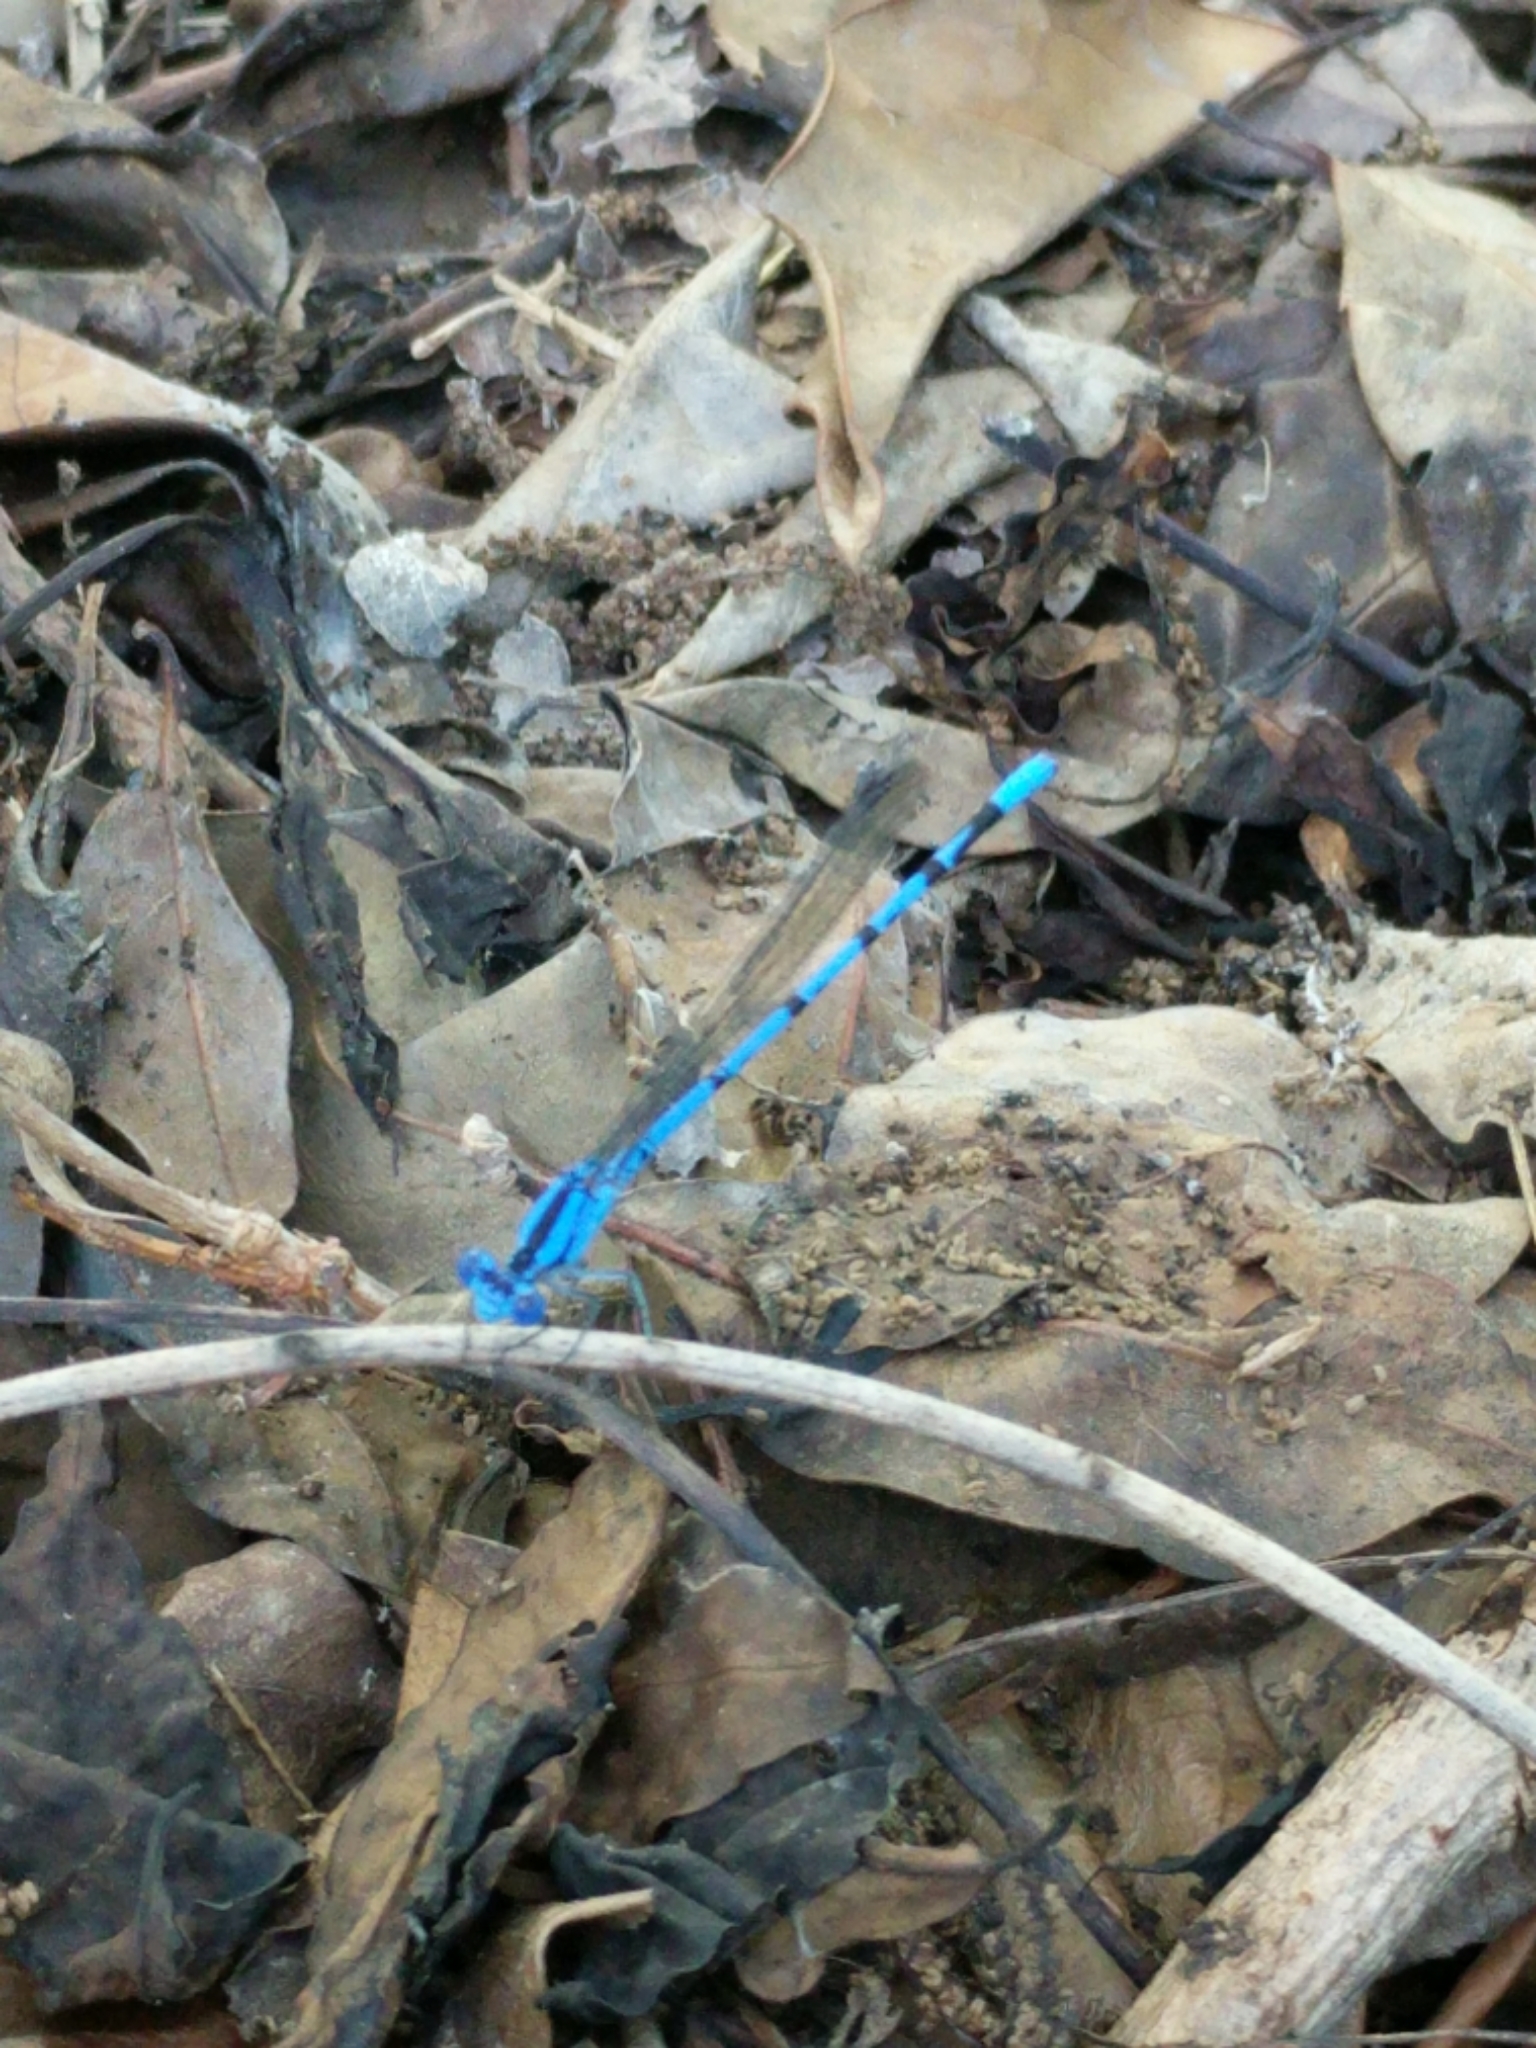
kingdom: Animalia
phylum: Arthropoda
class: Insecta
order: Odonata
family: Coenagrionidae
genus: Argia
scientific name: Argia
